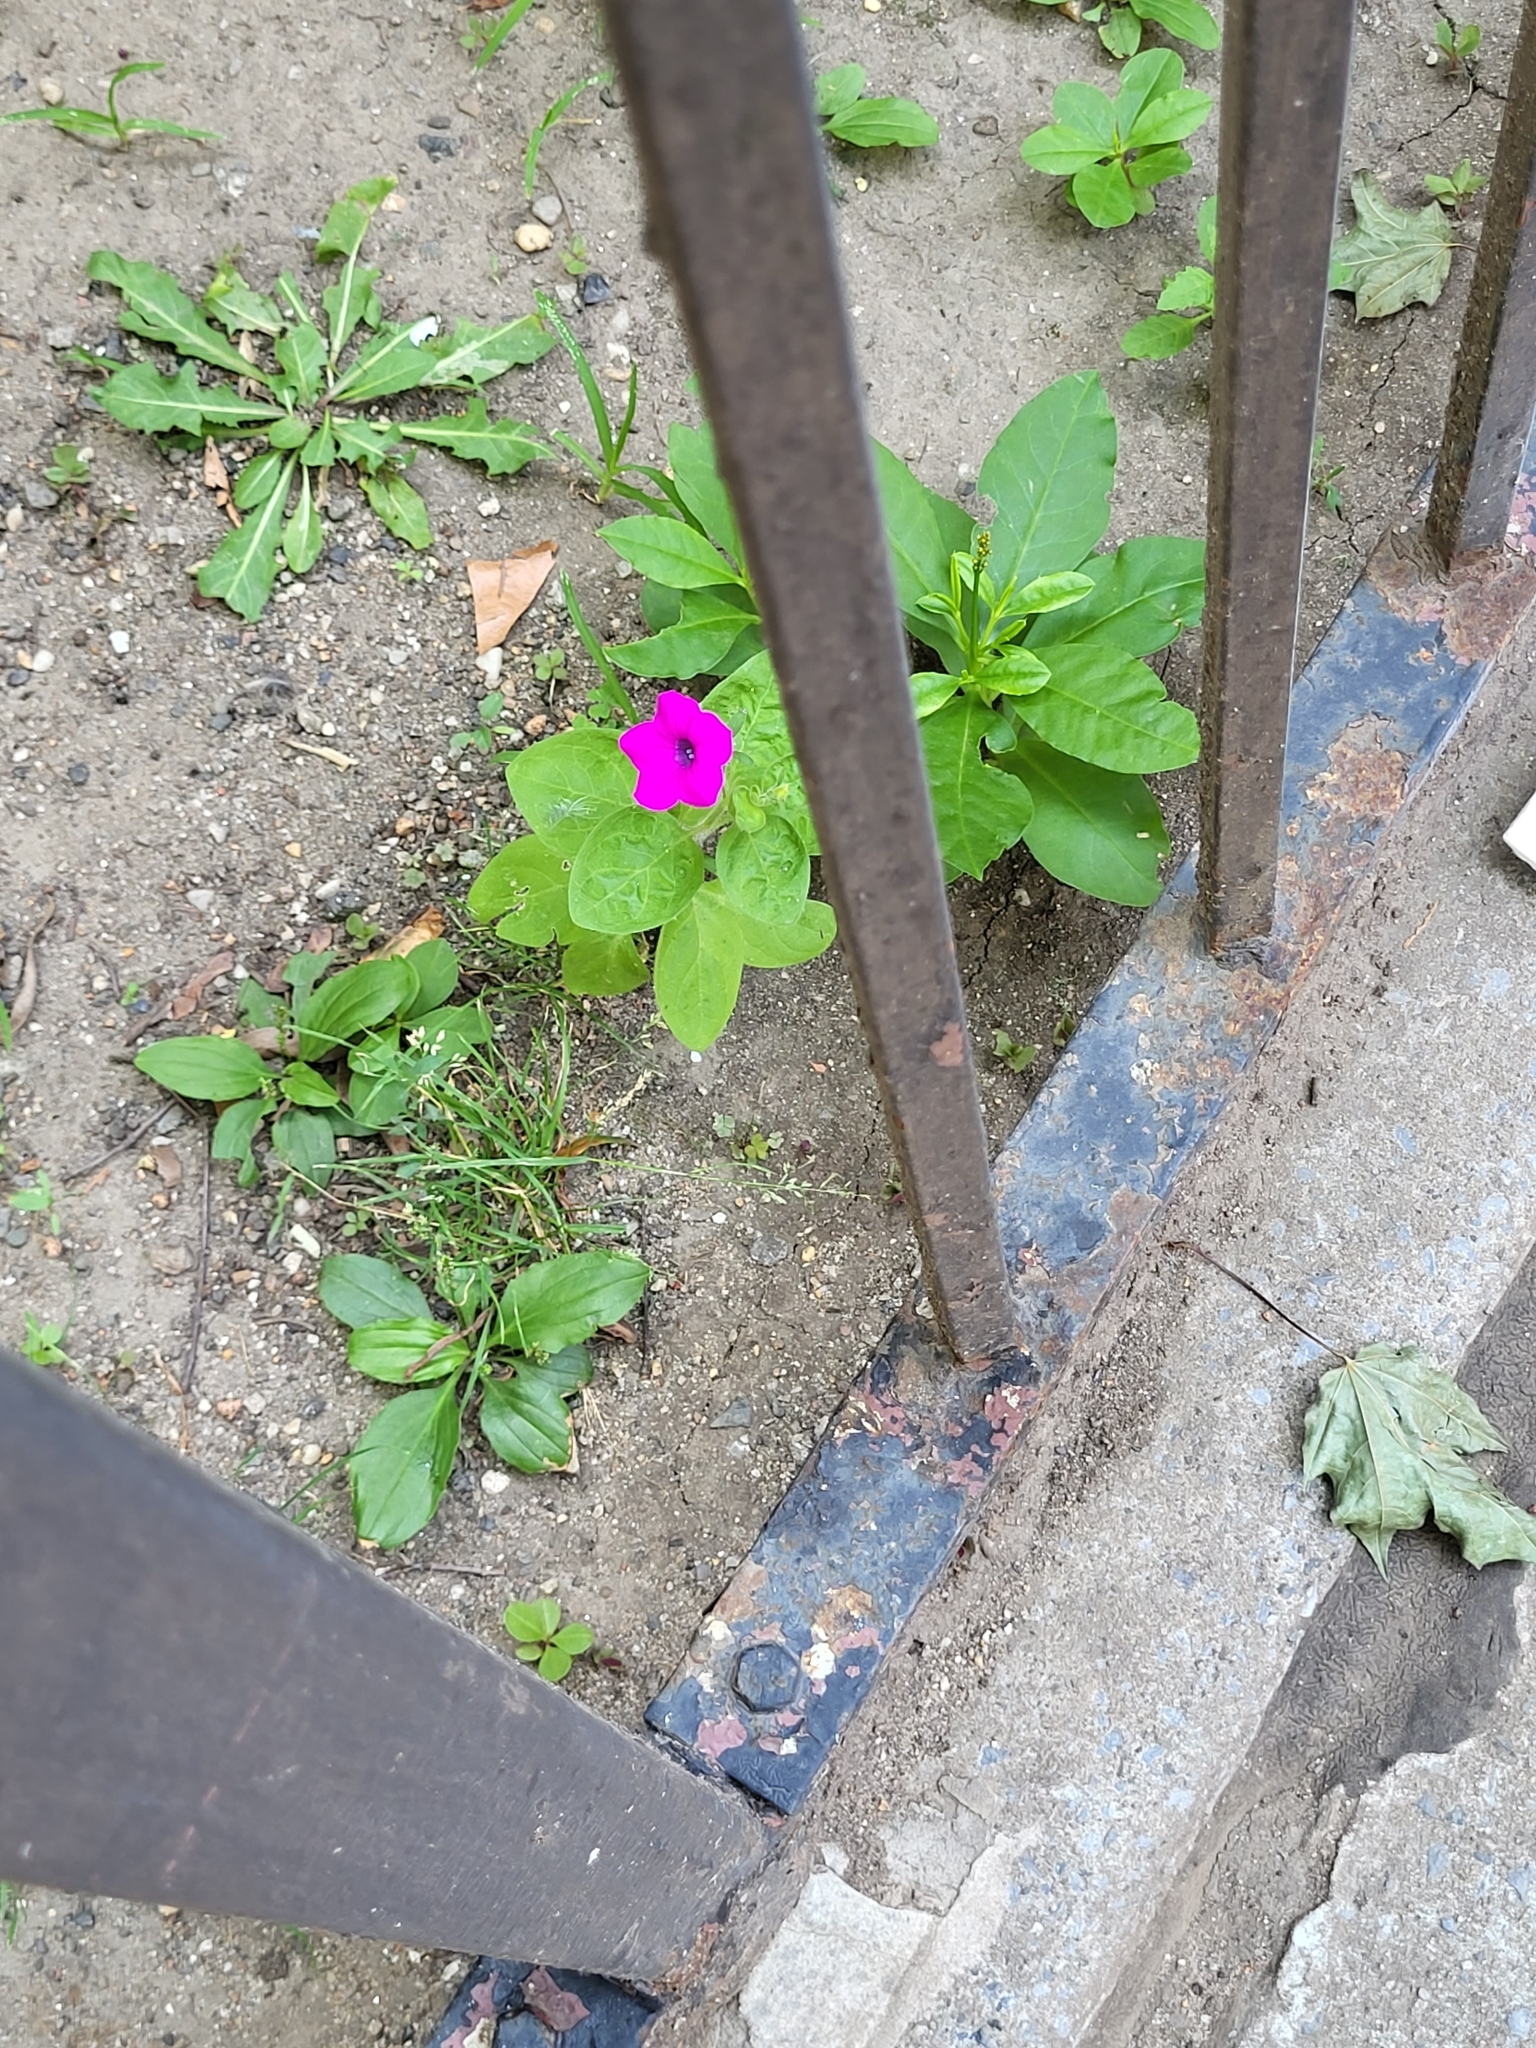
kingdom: Plantae
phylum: Tracheophyta
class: Magnoliopsida
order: Solanales
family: Solanaceae
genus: Petunia
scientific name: Petunia atkinsiana
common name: Petunia
